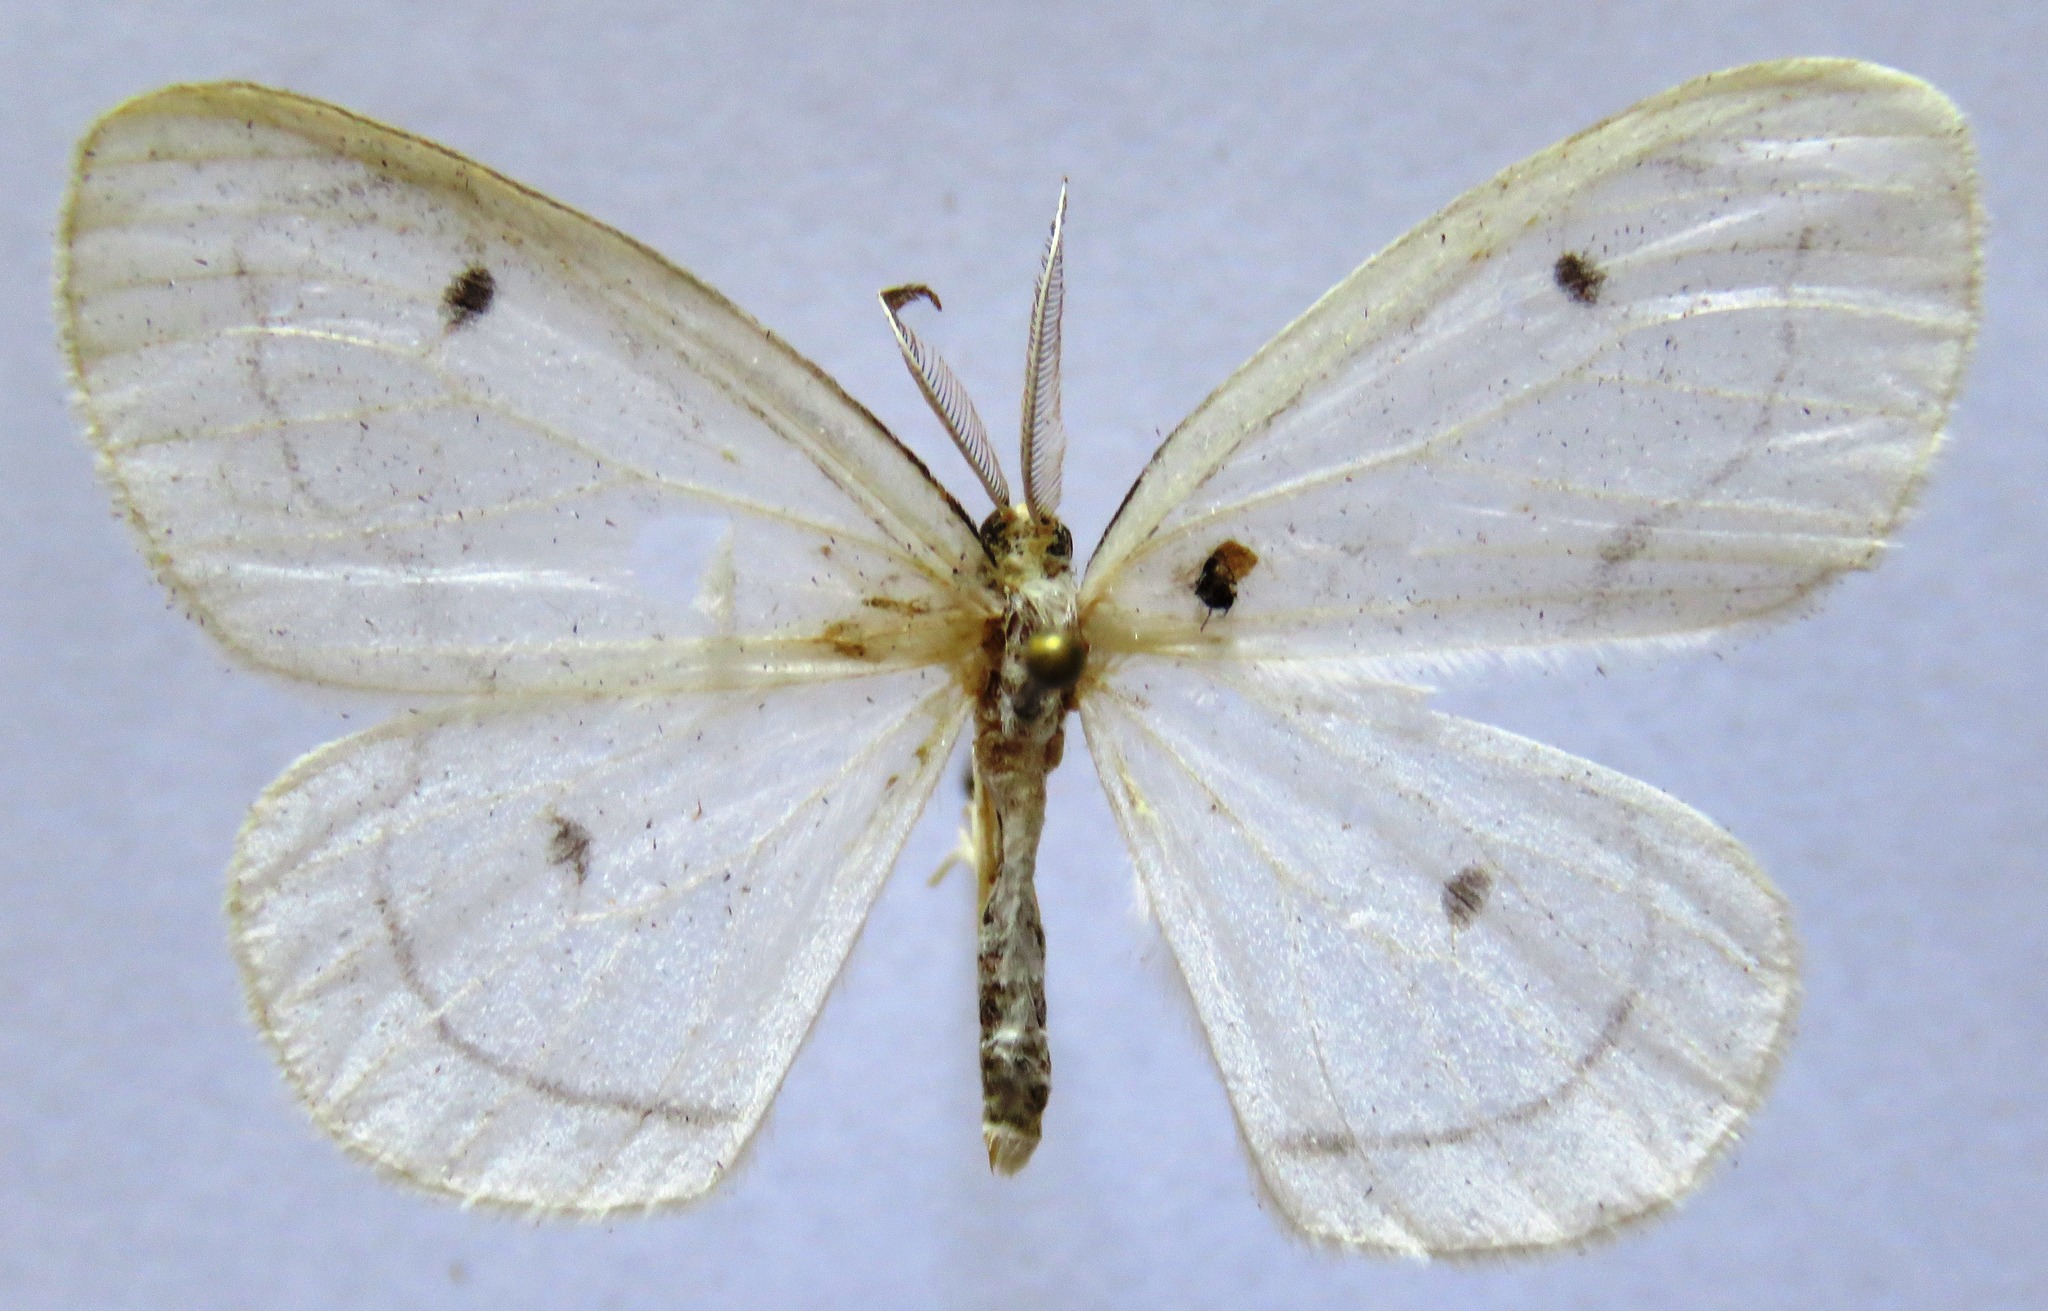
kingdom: Animalia
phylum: Arthropoda
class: Insecta
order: Lepidoptera
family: Geometridae
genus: Leucula
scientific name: Leucula meganira
